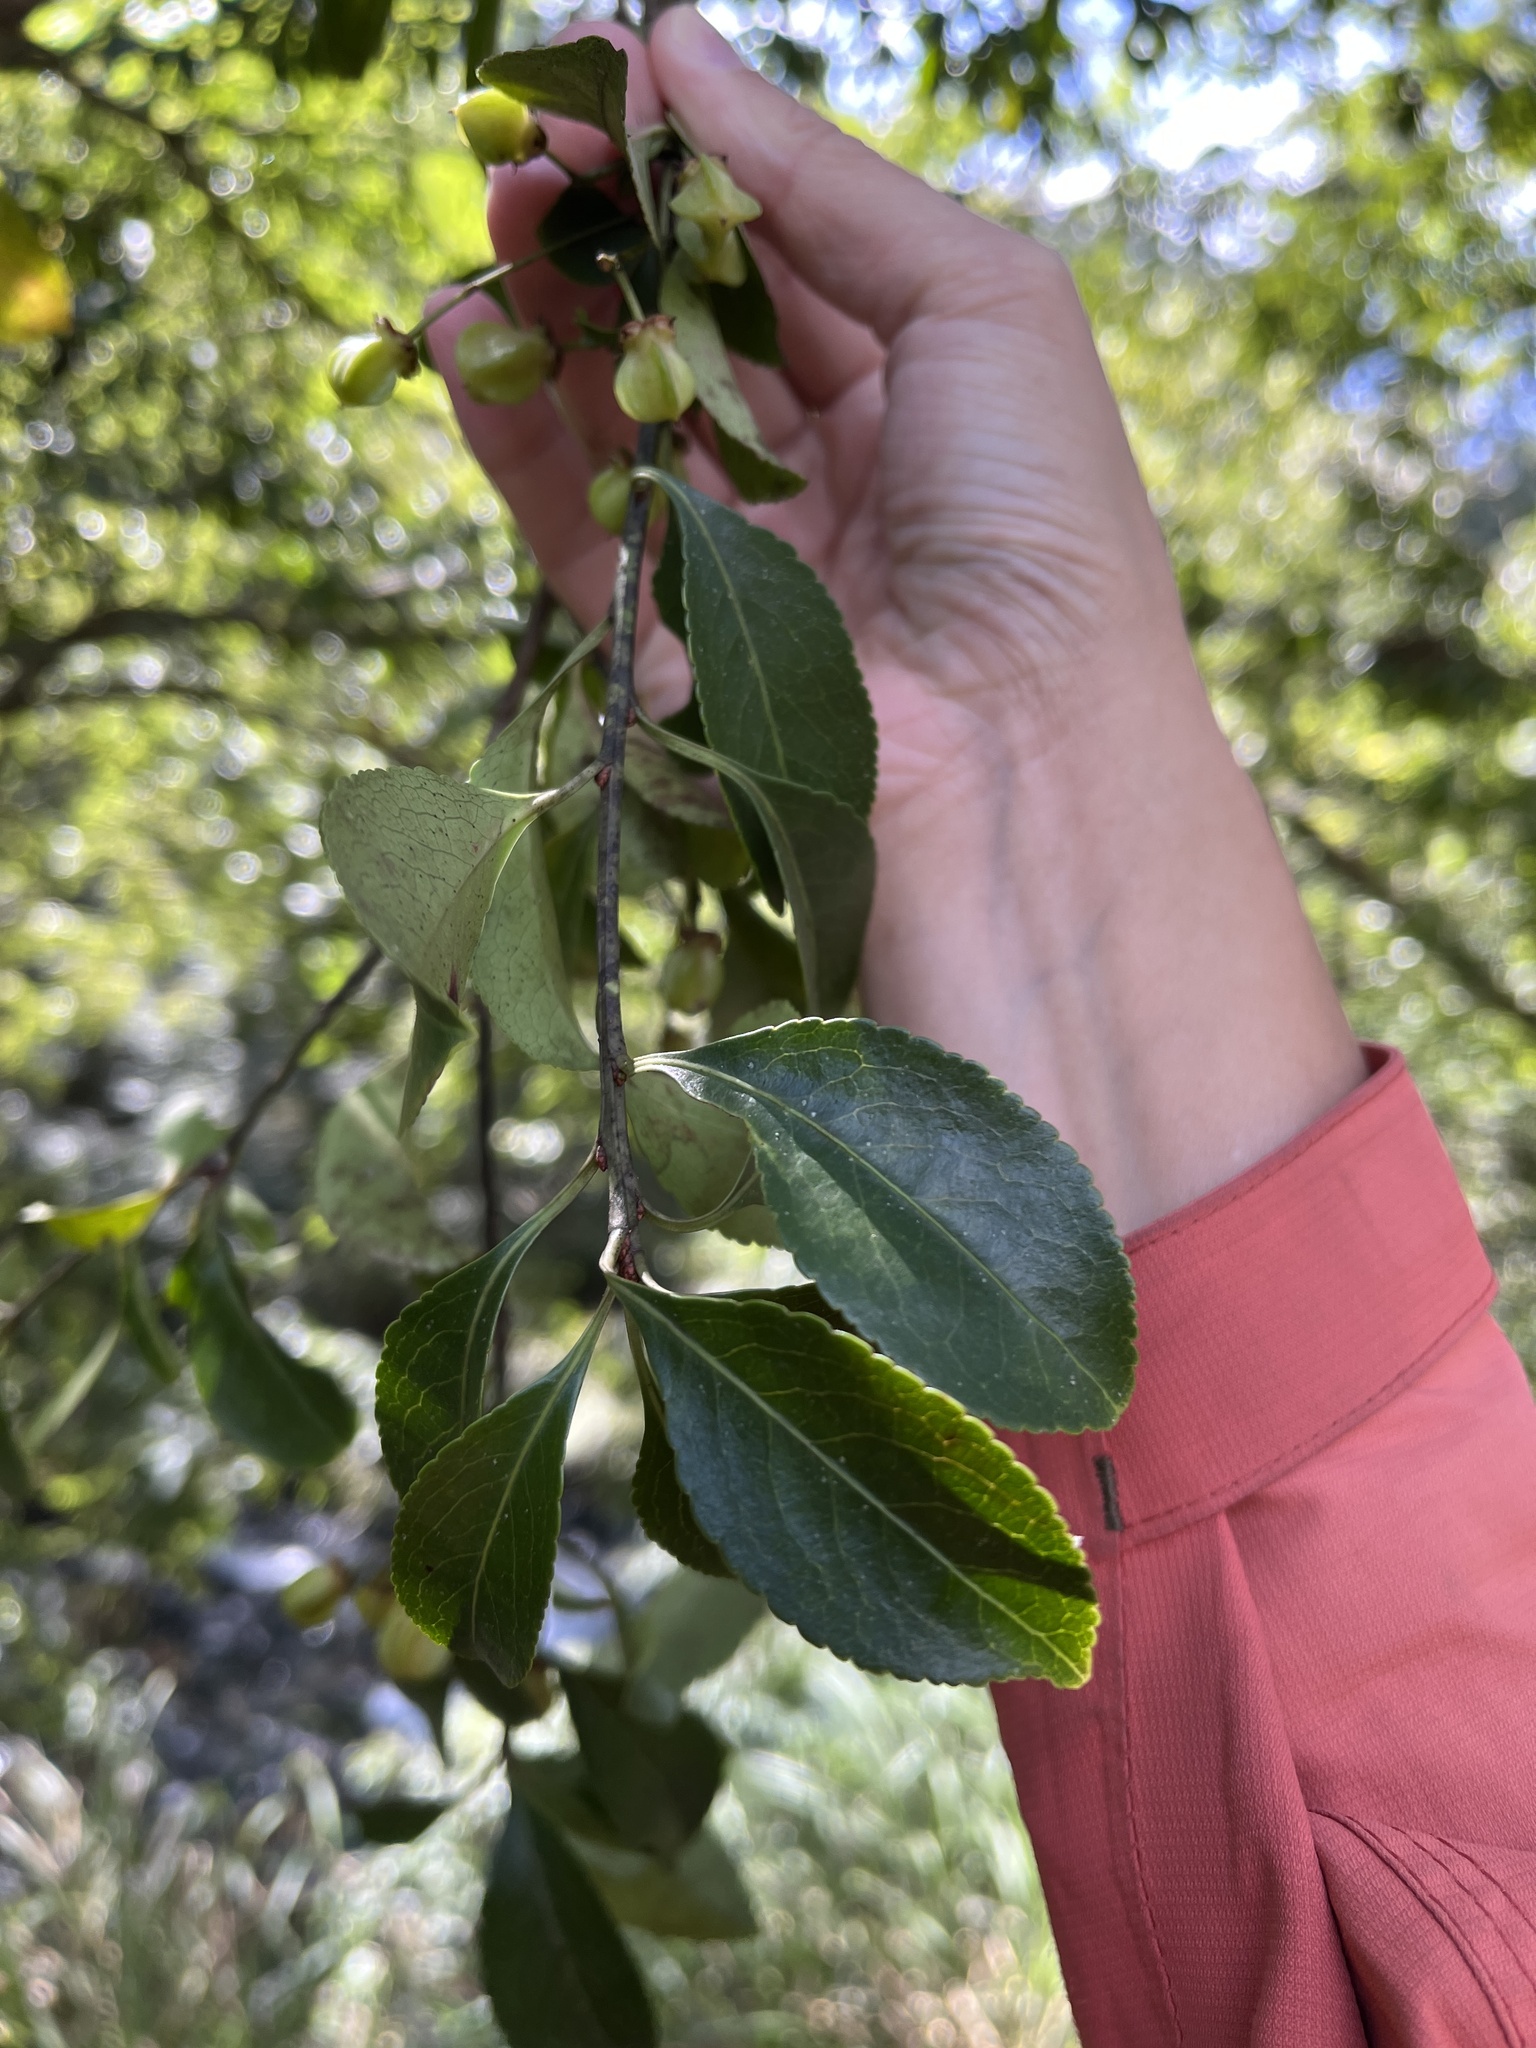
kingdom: Plantae
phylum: Tracheophyta
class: Magnoliopsida
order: Celastrales
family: Celastraceae
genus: Euonymus
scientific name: Euonymus carnosus
